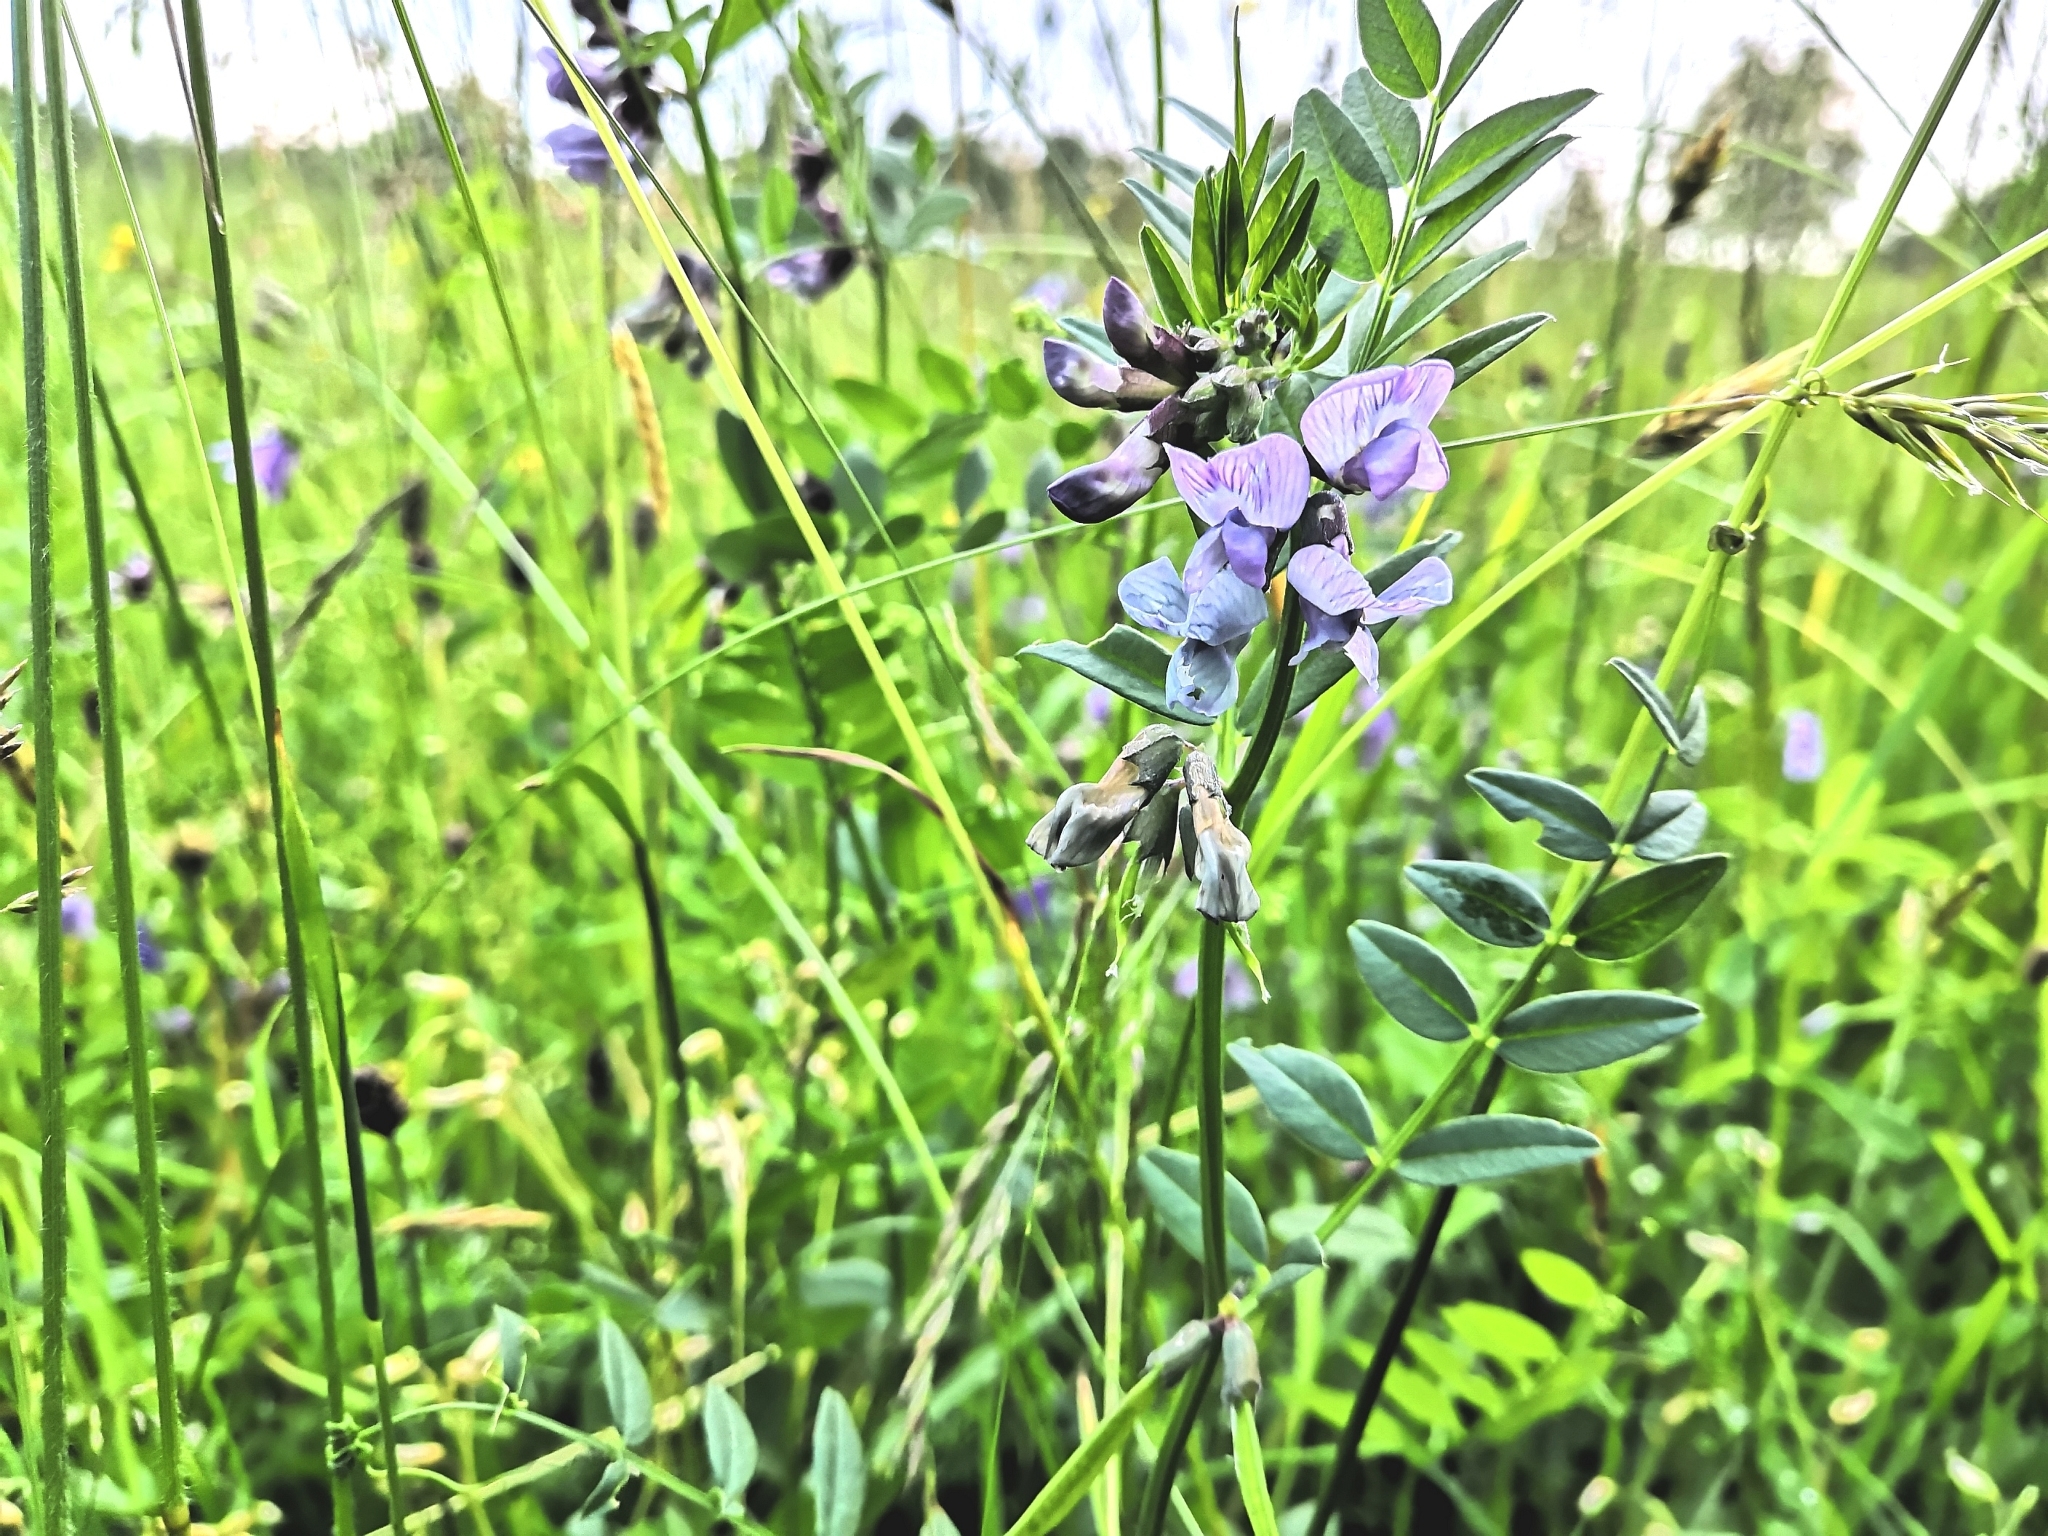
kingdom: Plantae
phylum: Tracheophyta
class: Magnoliopsida
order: Fabales
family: Fabaceae
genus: Vicia
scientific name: Vicia sepium
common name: Bush vetch
